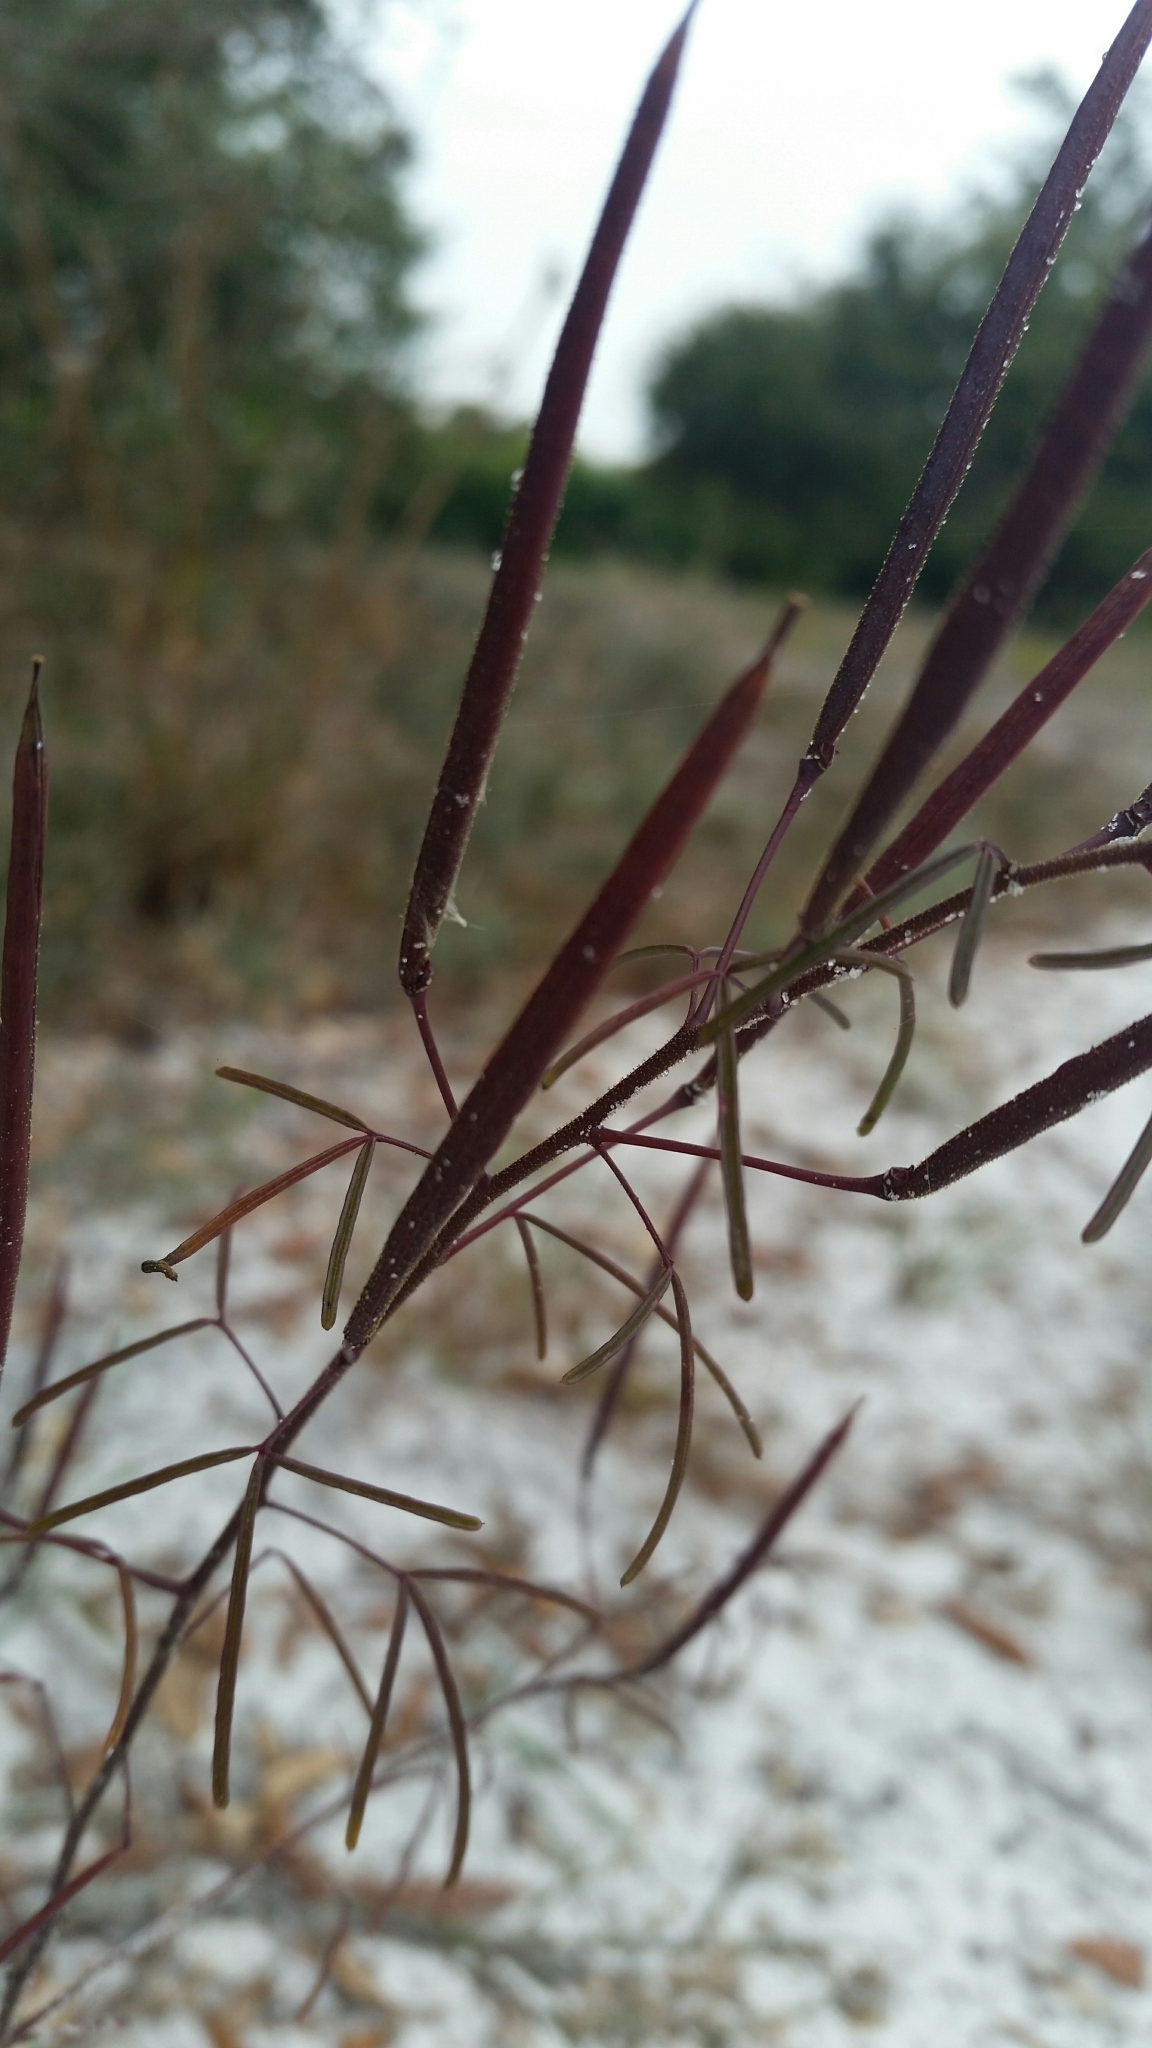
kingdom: Plantae
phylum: Tracheophyta
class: Magnoliopsida
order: Brassicales
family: Cleomaceae
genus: Polanisia
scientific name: Polanisia tenuifolia
